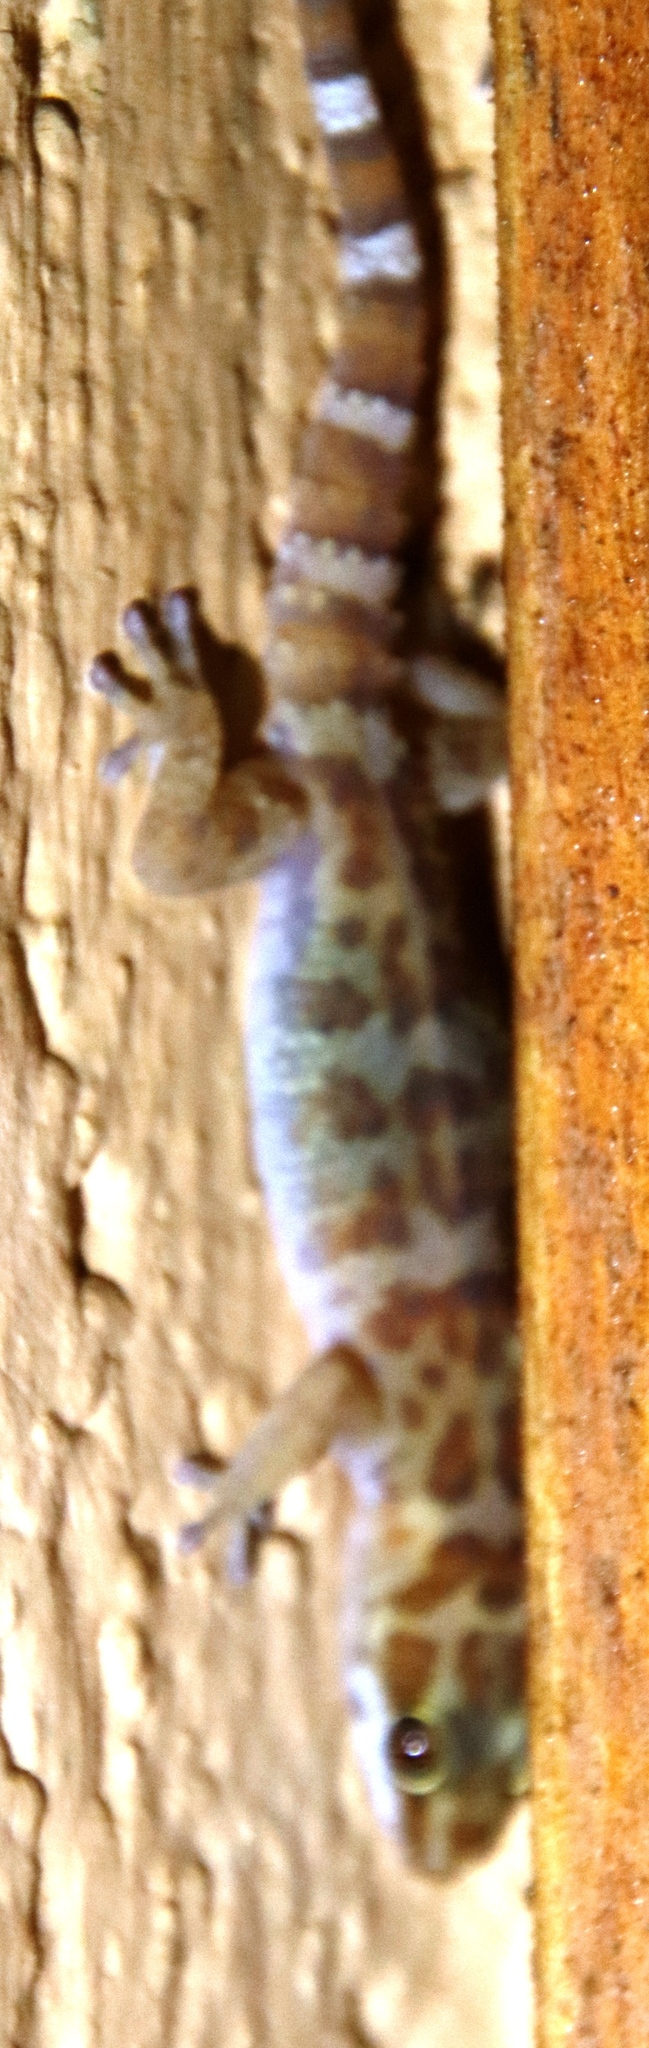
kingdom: Animalia
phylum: Chordata
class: Squamata
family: Gekkonidae
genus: Pachydactylus
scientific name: Pachydactylus weberi
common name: Weber's gecko
